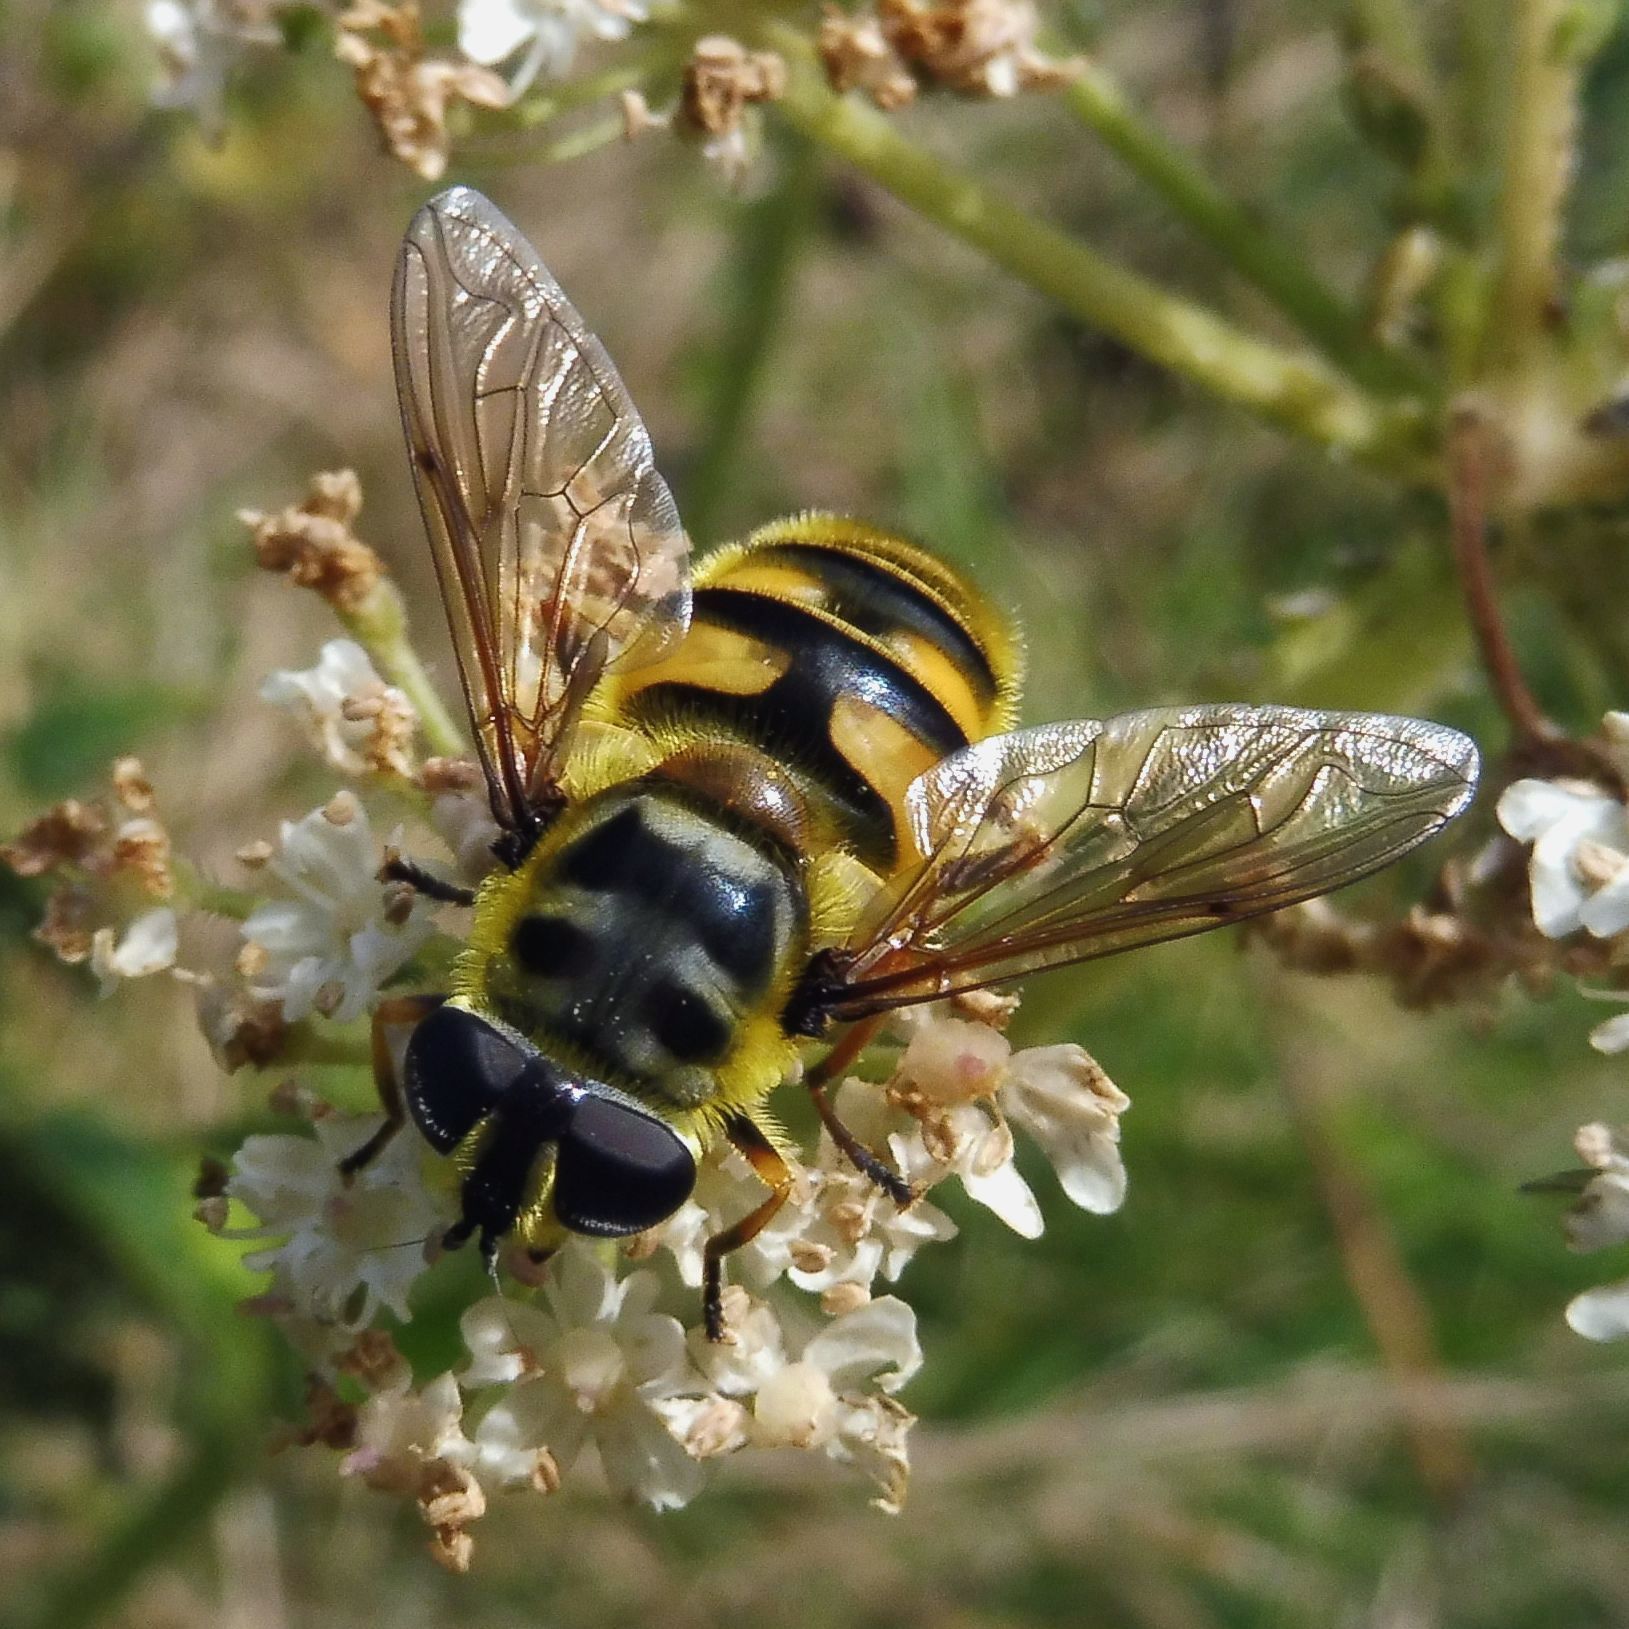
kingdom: Animalia
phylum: Arthropoda
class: Insecta
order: Diptera
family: Syrphidae
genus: Myathropa
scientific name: Myathropa florea
